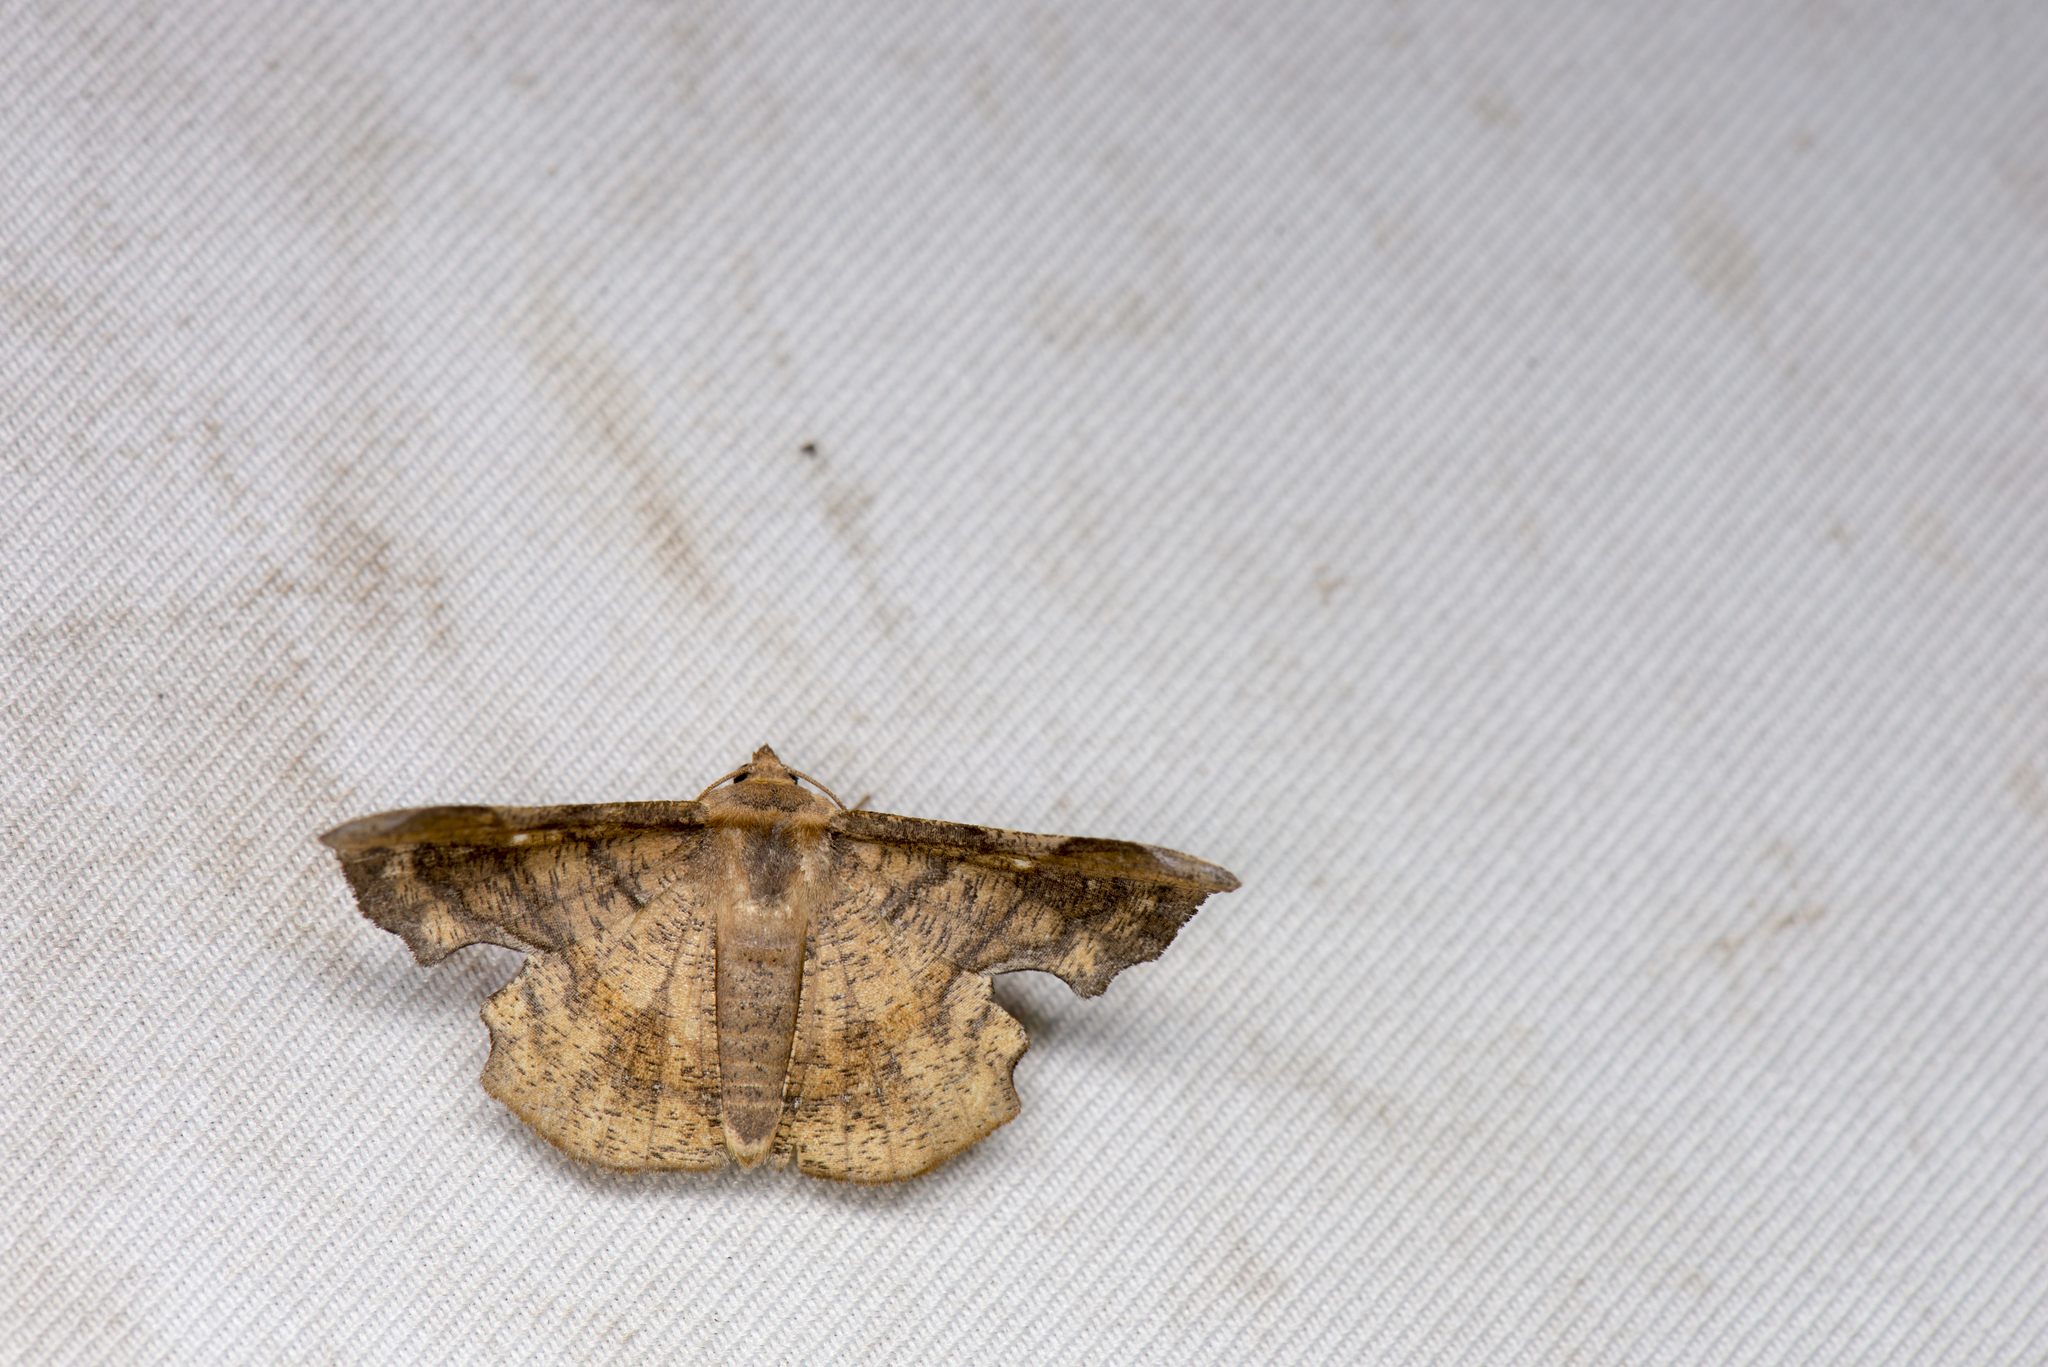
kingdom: Animalia
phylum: Arthropoda
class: Insecta
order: Lepidoptera
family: Geometridae
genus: Fascellina
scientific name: Fascellina chromataria
